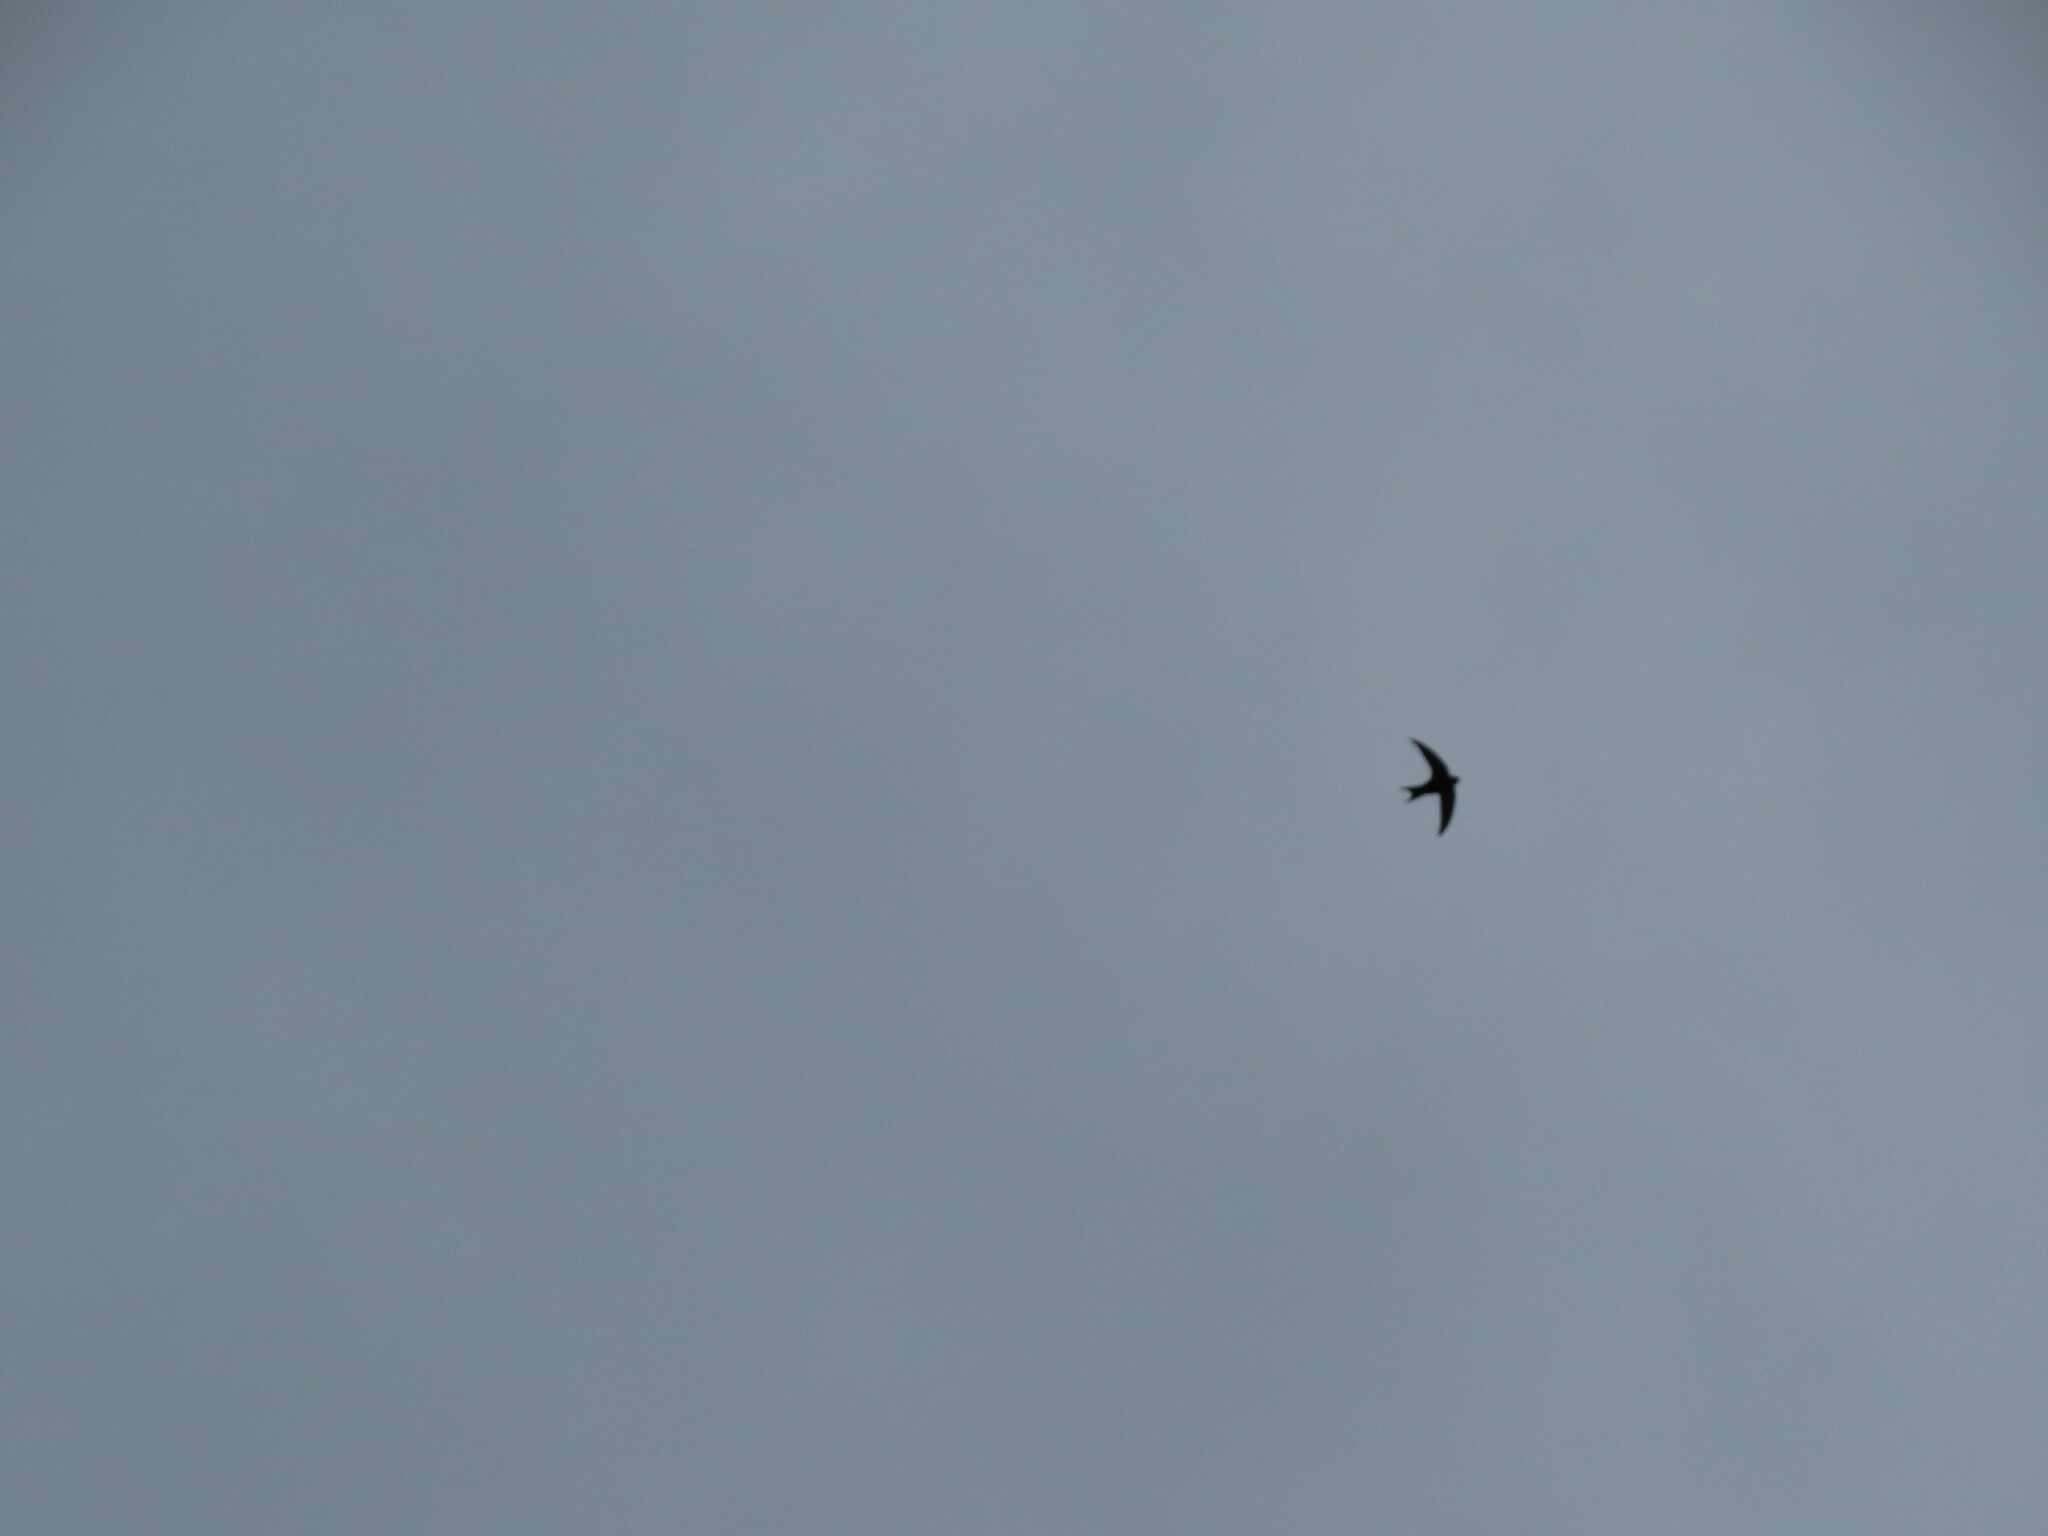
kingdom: Animalia
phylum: Chordata
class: Aves
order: Apodiformes
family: Apodidae
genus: Apus
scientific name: Apus apus
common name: Common swift
